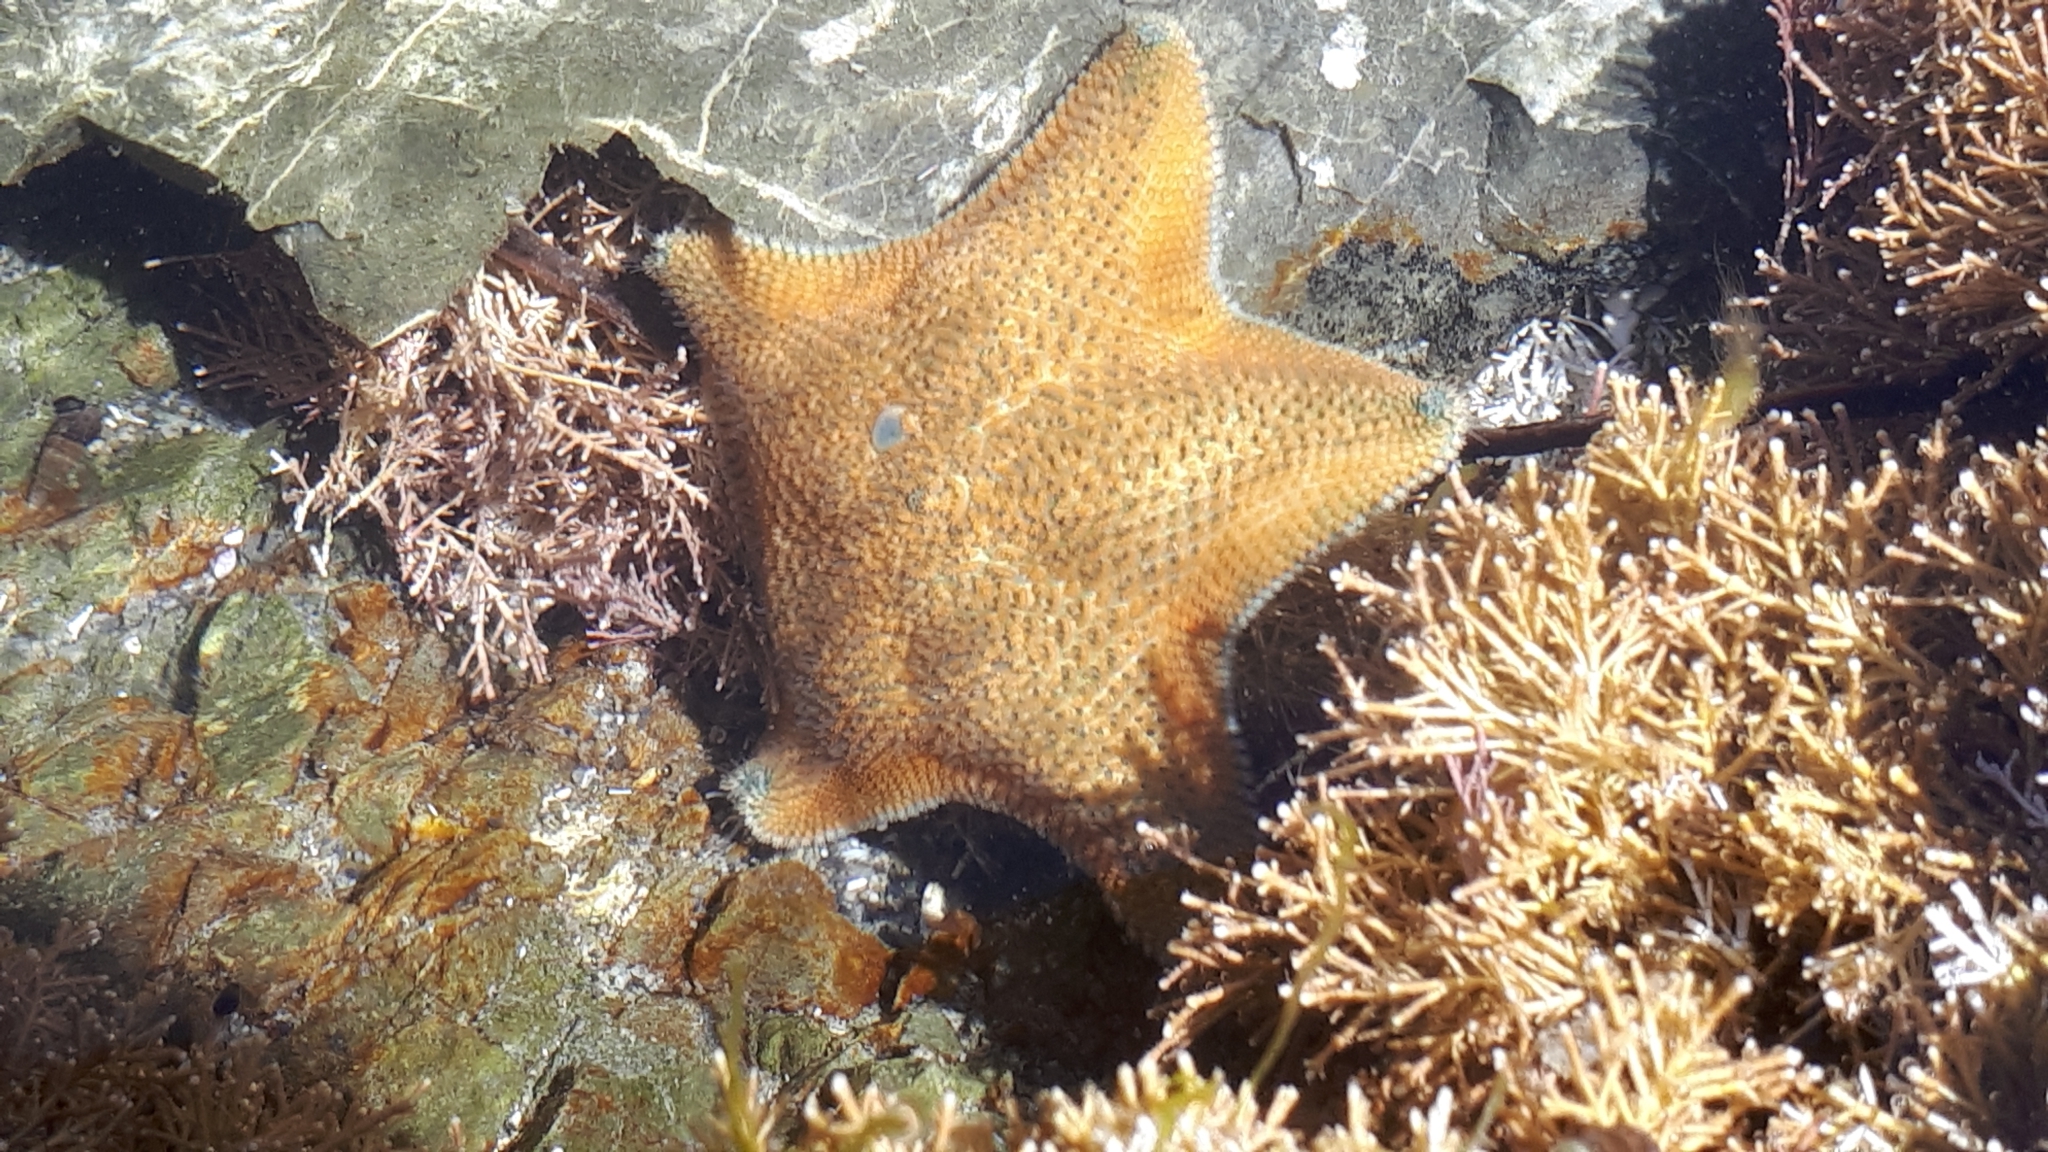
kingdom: Animalia
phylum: Echinodermata
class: Asteroidea
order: Valvatida
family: Asterinidae
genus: Patiriella
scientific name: Patiriella regularis
